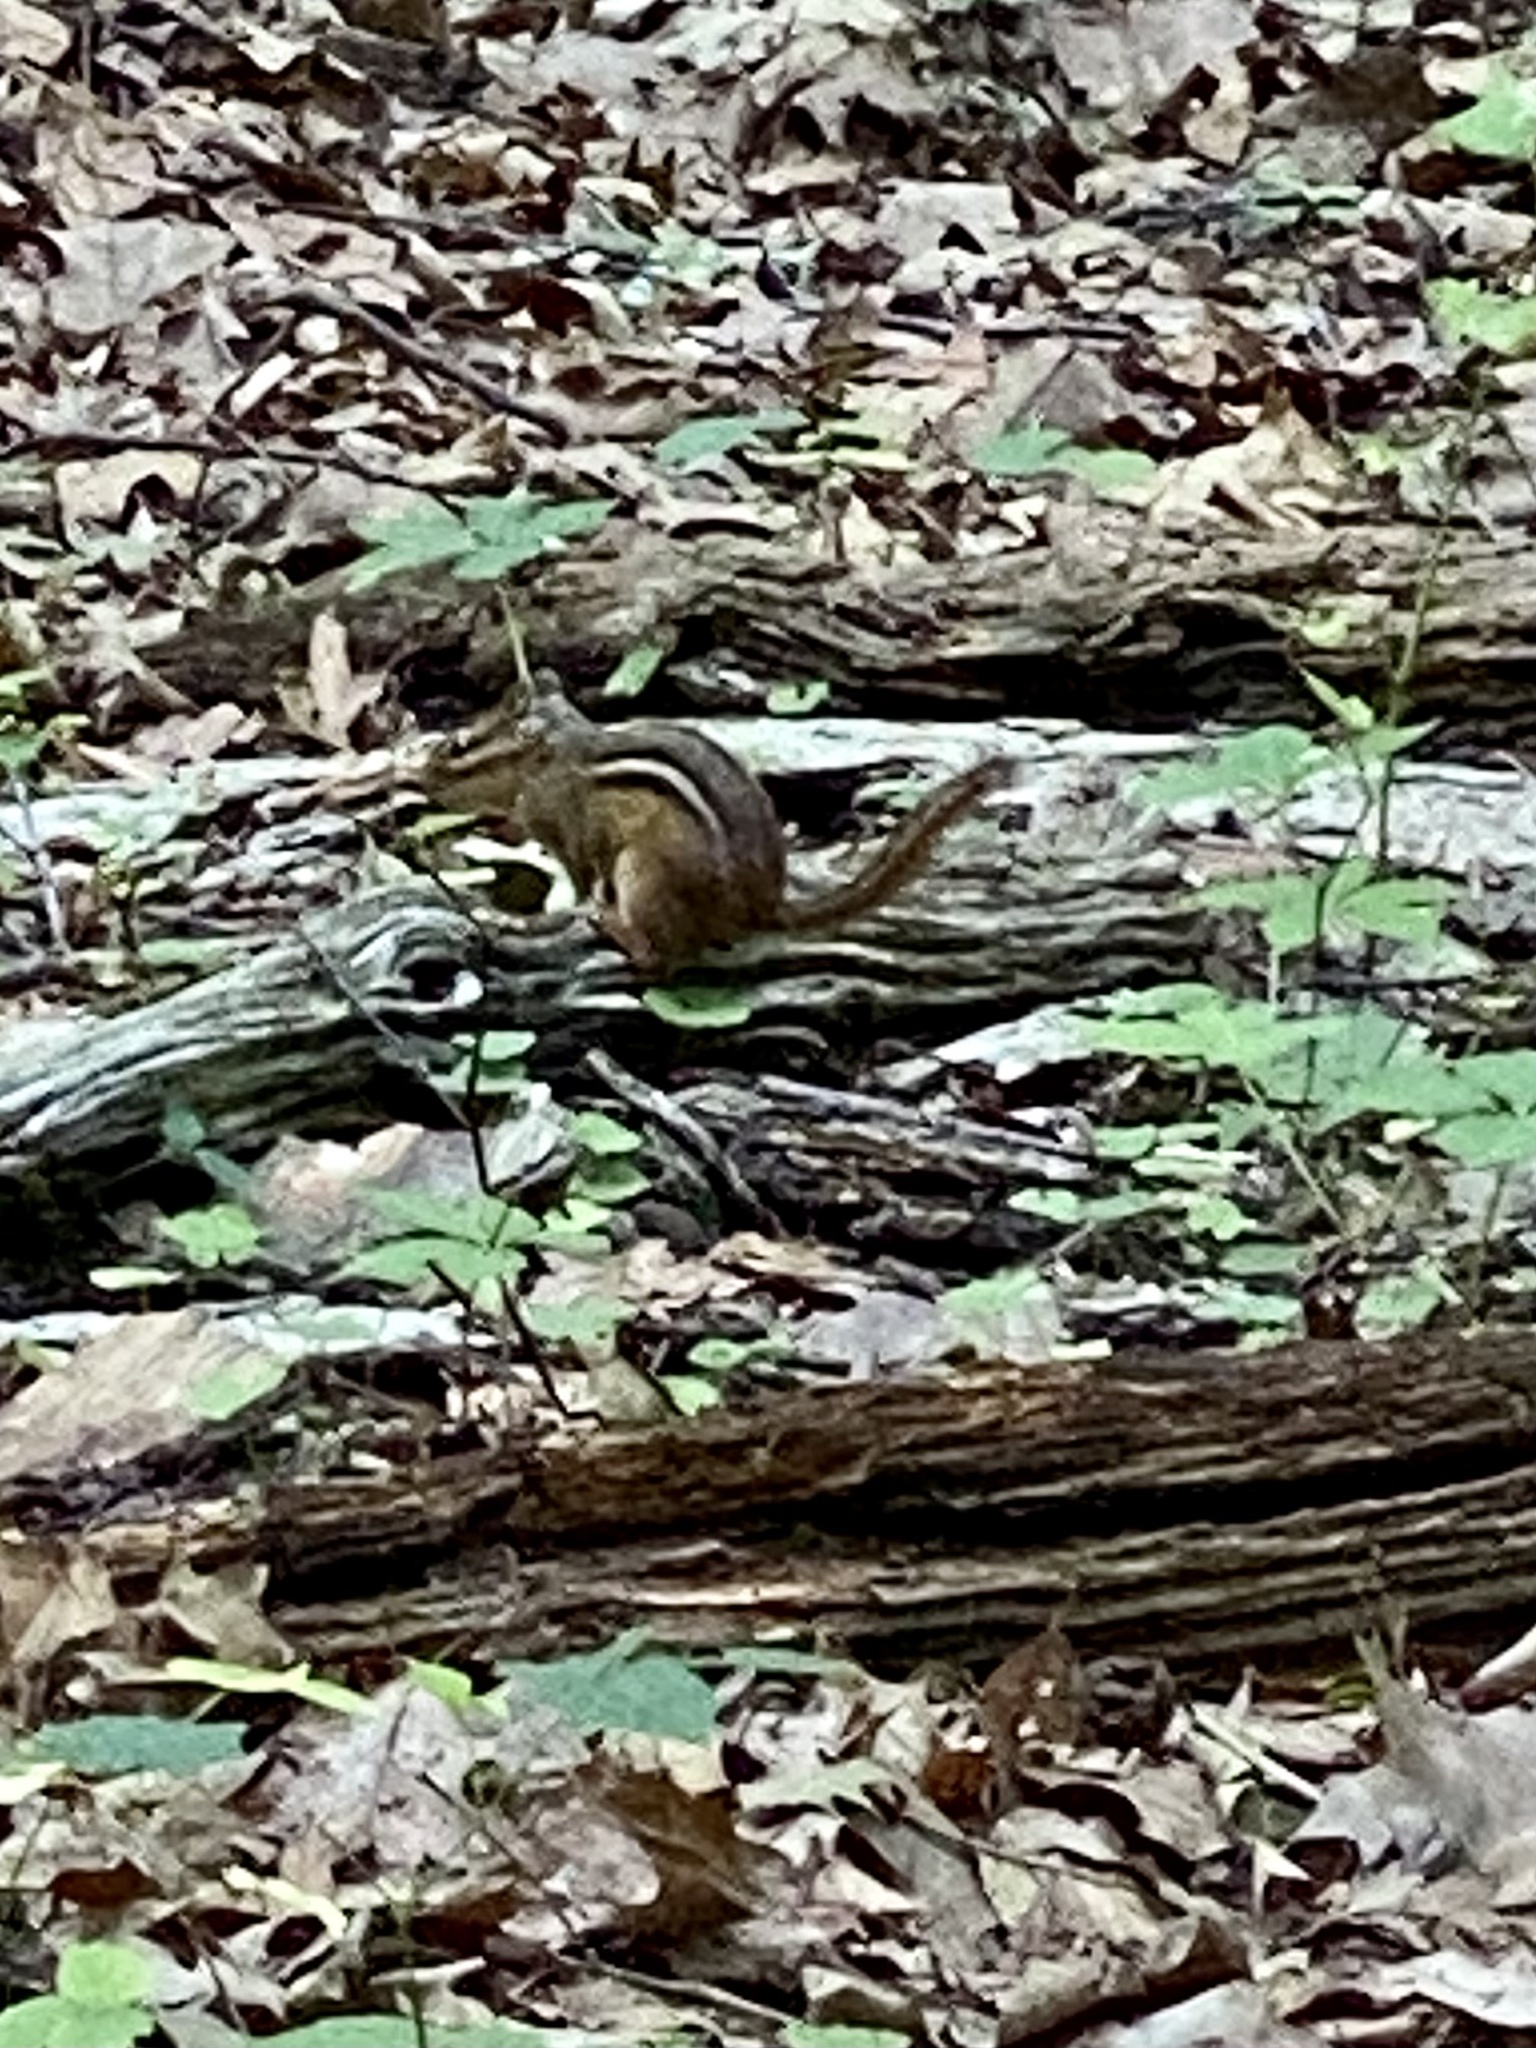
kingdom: Animalia
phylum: Chordata
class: Mammalia
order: Rodentia
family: Sciuridae
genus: Tamias
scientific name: Tamias striatus
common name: Eastern chipmunk
